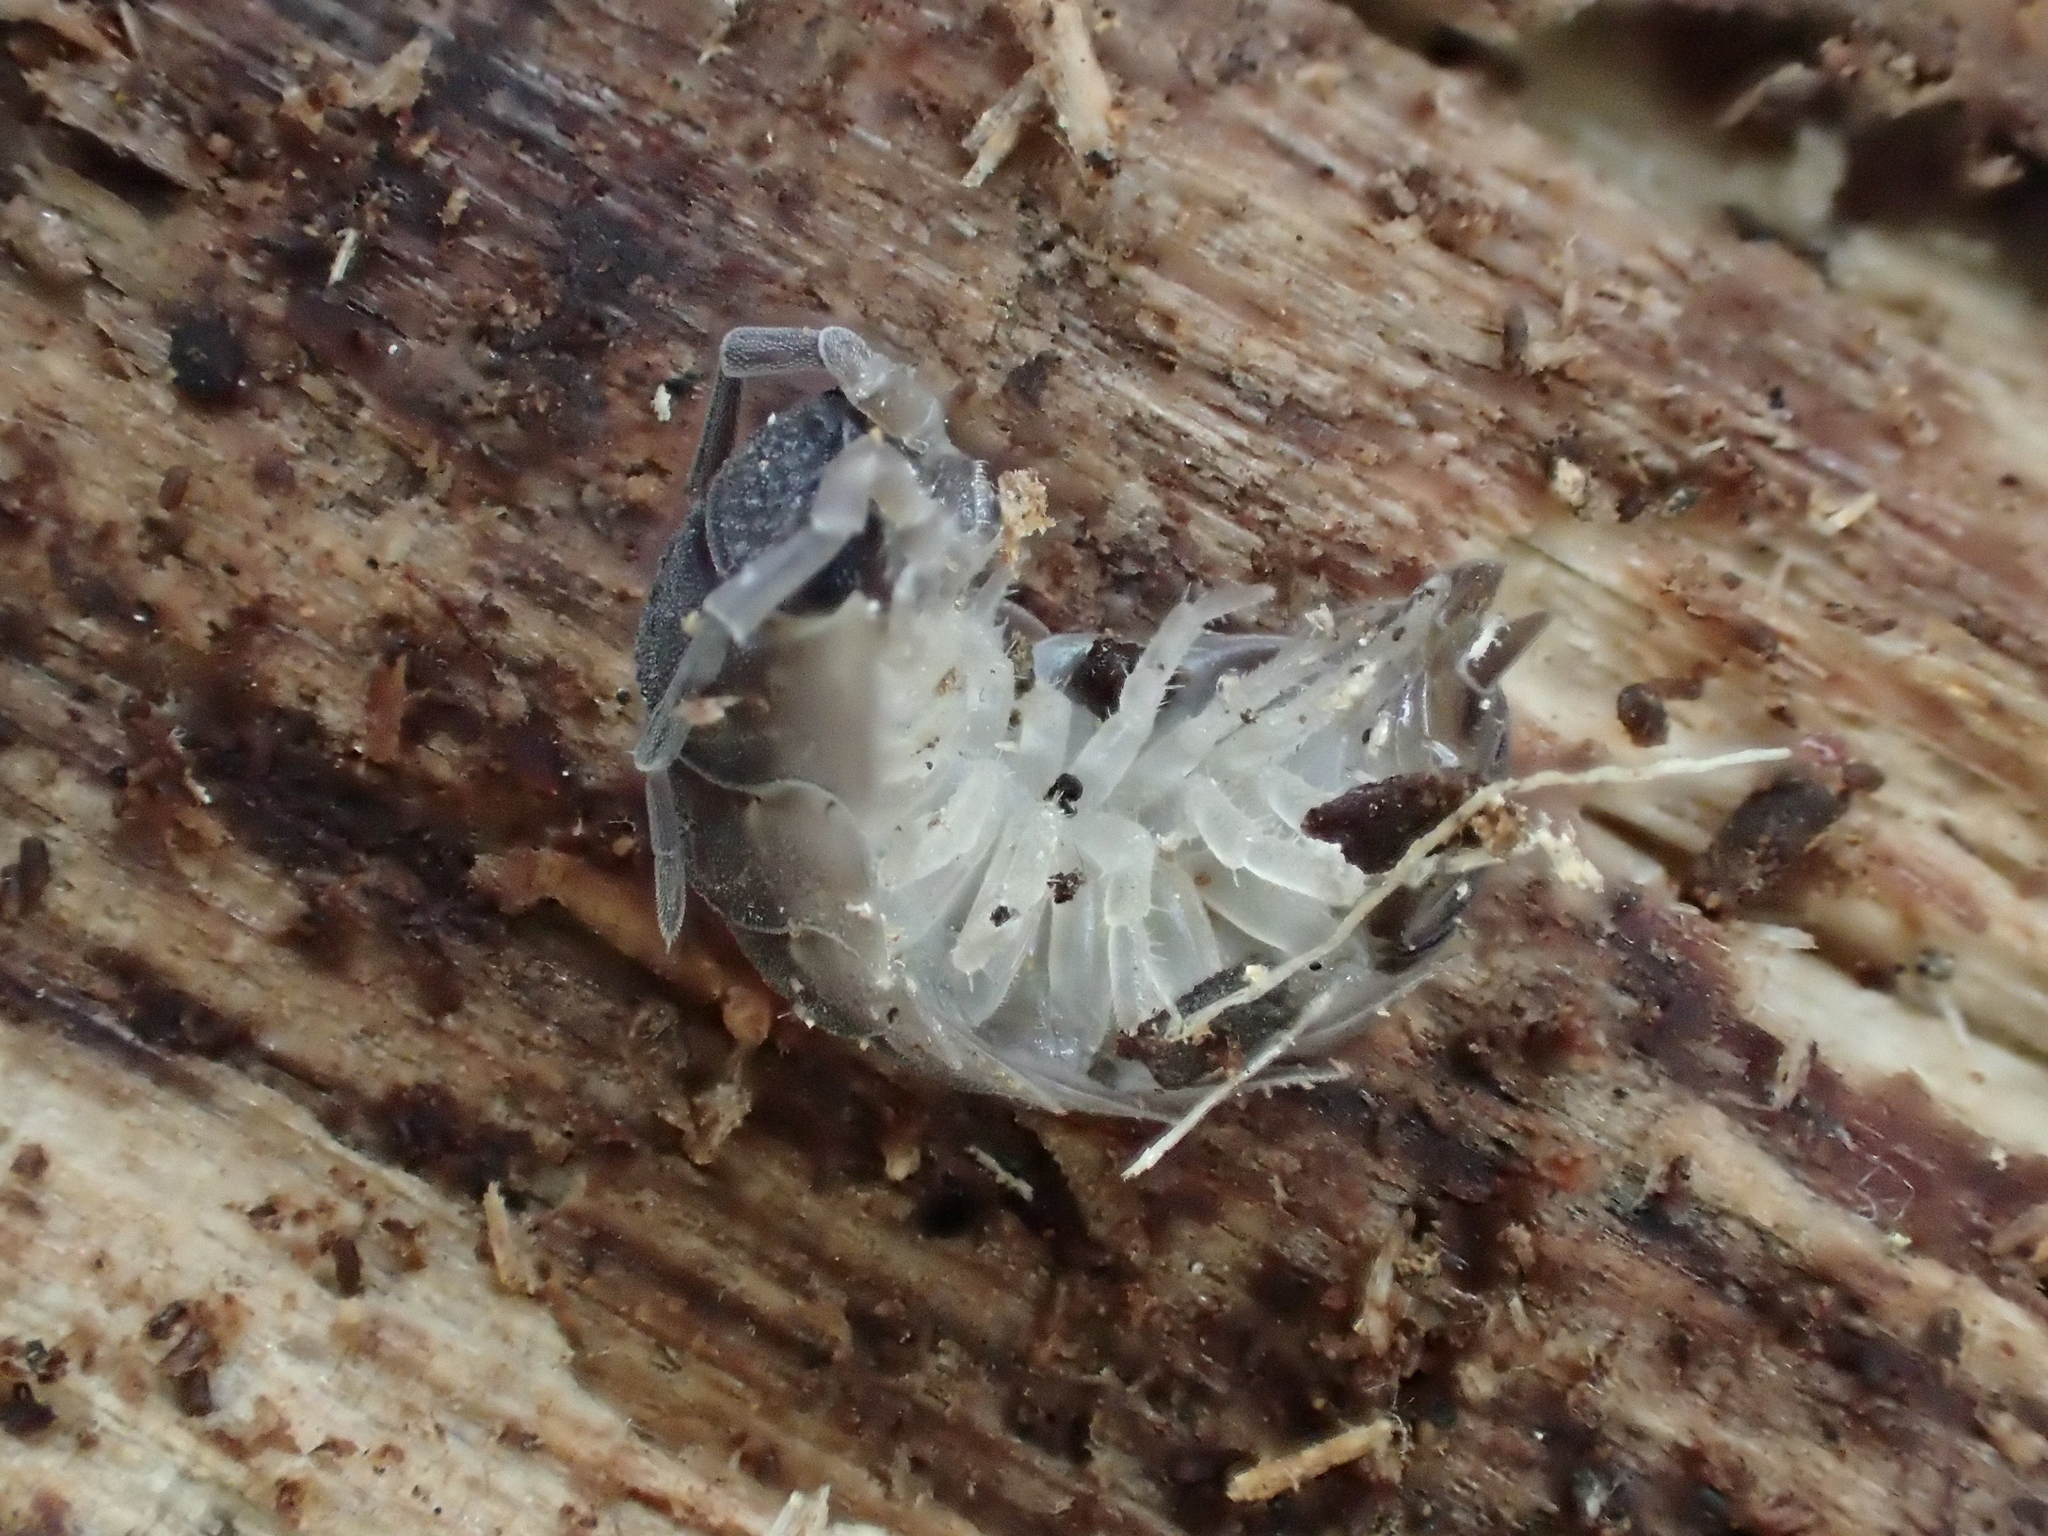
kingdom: Animalia
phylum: Arthropoda
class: Malacostraca
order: Isopoda
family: Porcellionidae
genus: Porcellio
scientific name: Porcellio scaber
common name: Common rough woodlouse
